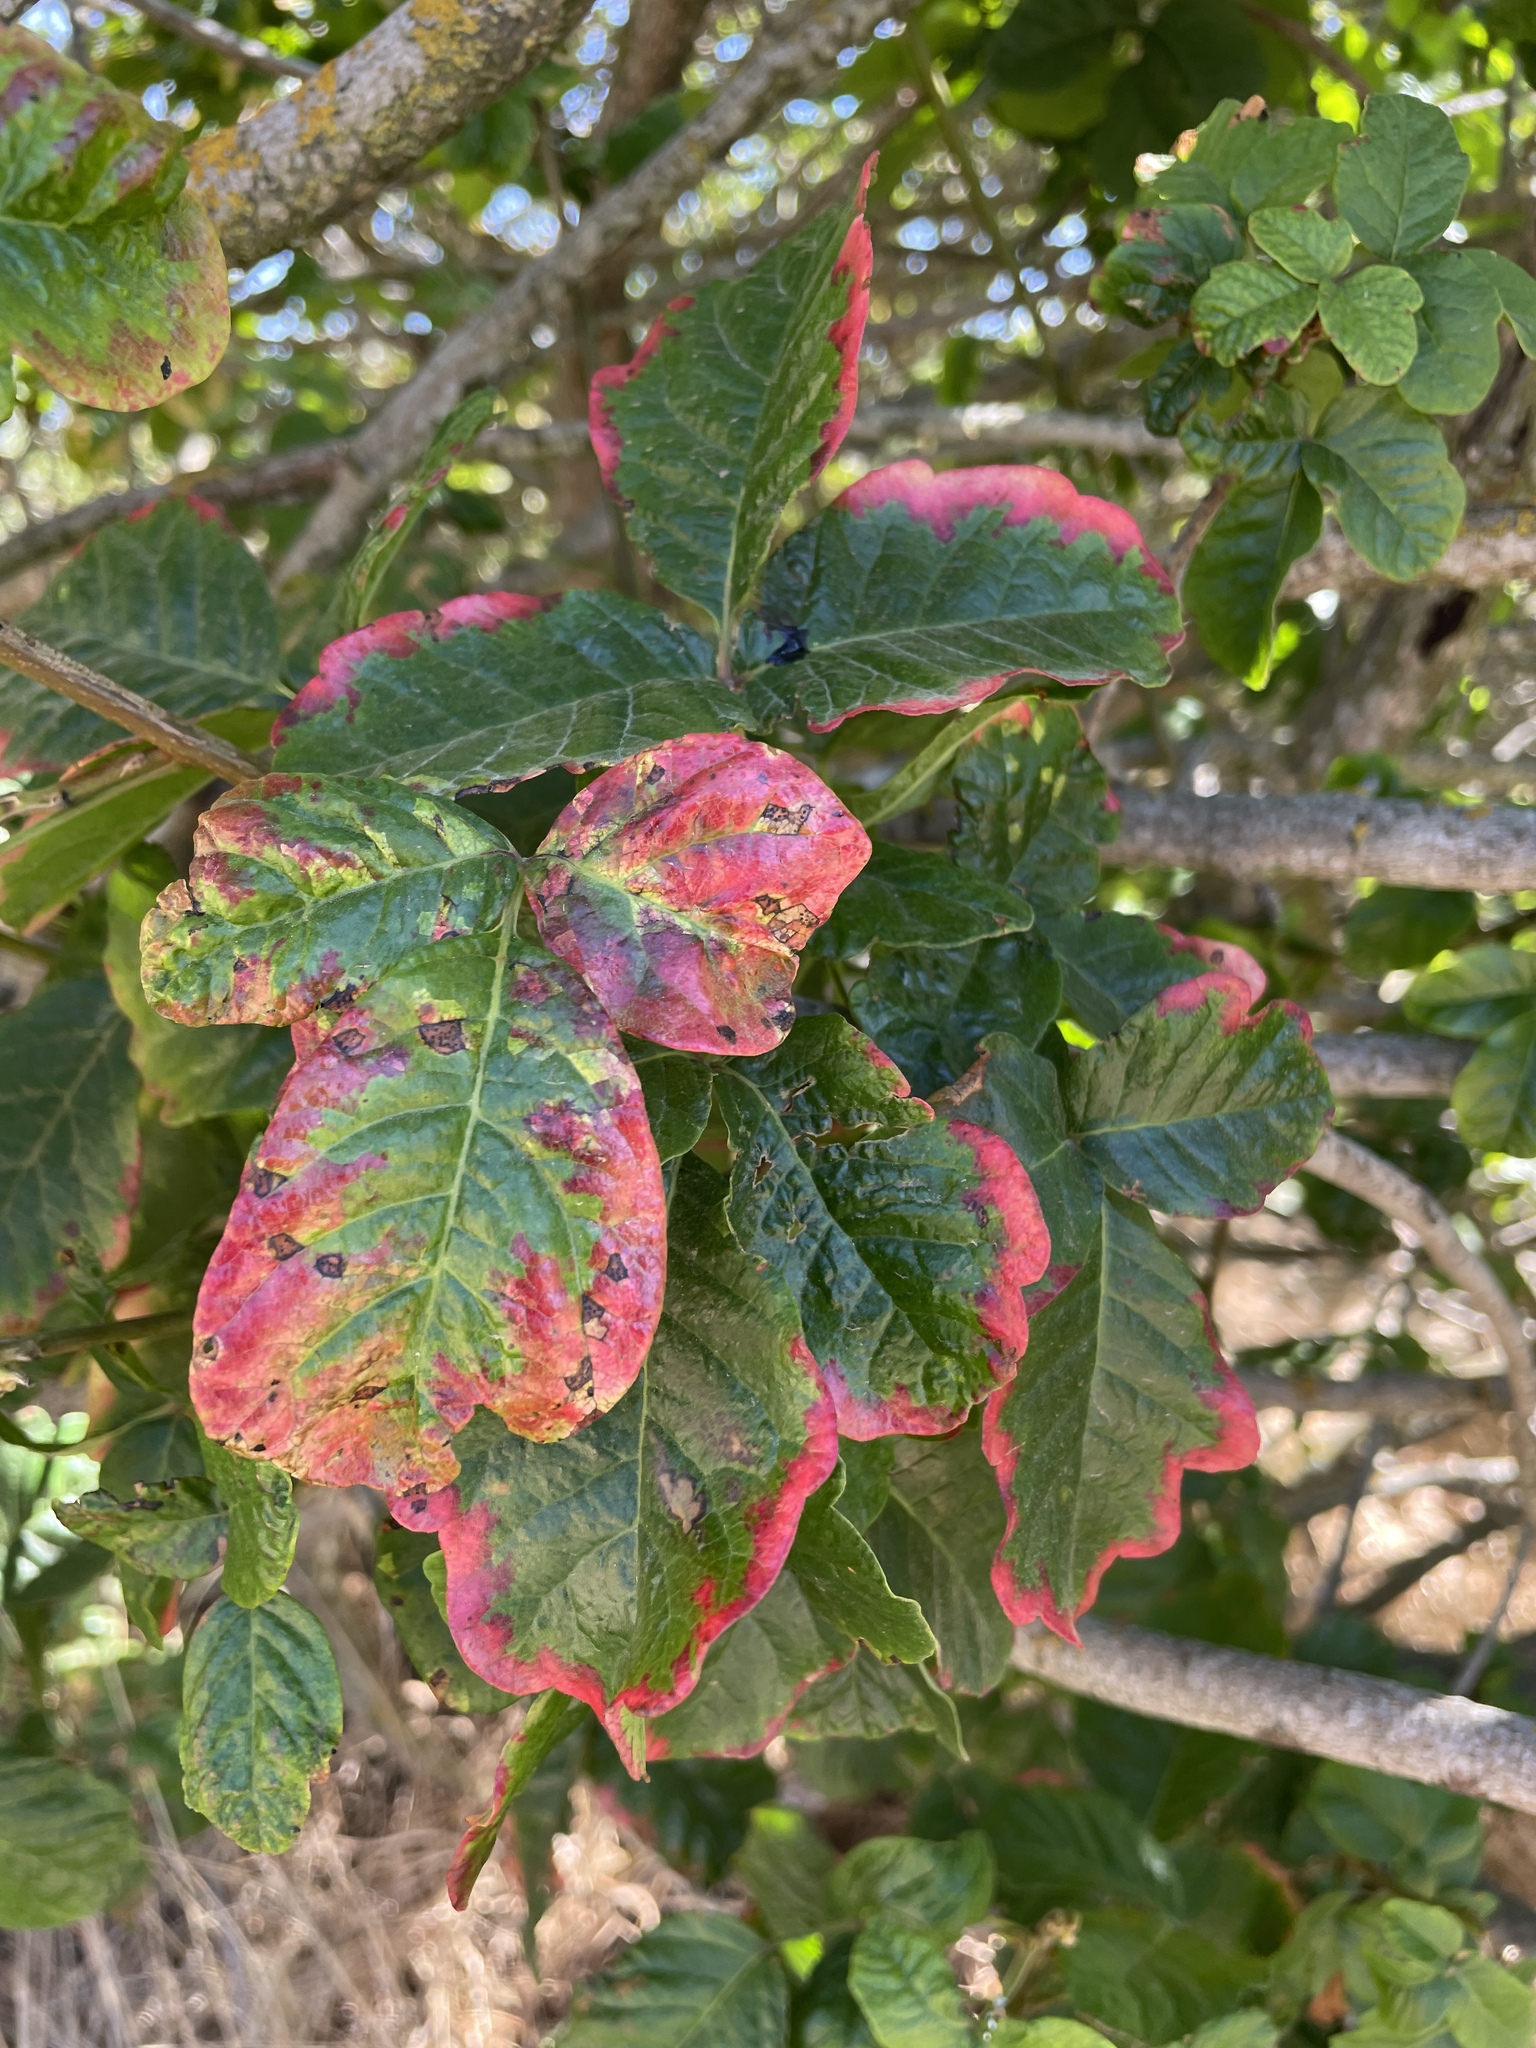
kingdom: Plantae
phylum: Tracheophyta
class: Magnoliopsida
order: Sapindales
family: Anacardiaceae
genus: Toxicodendron
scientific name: Toxicodendron diversilobum
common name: Pacific poison-oak
